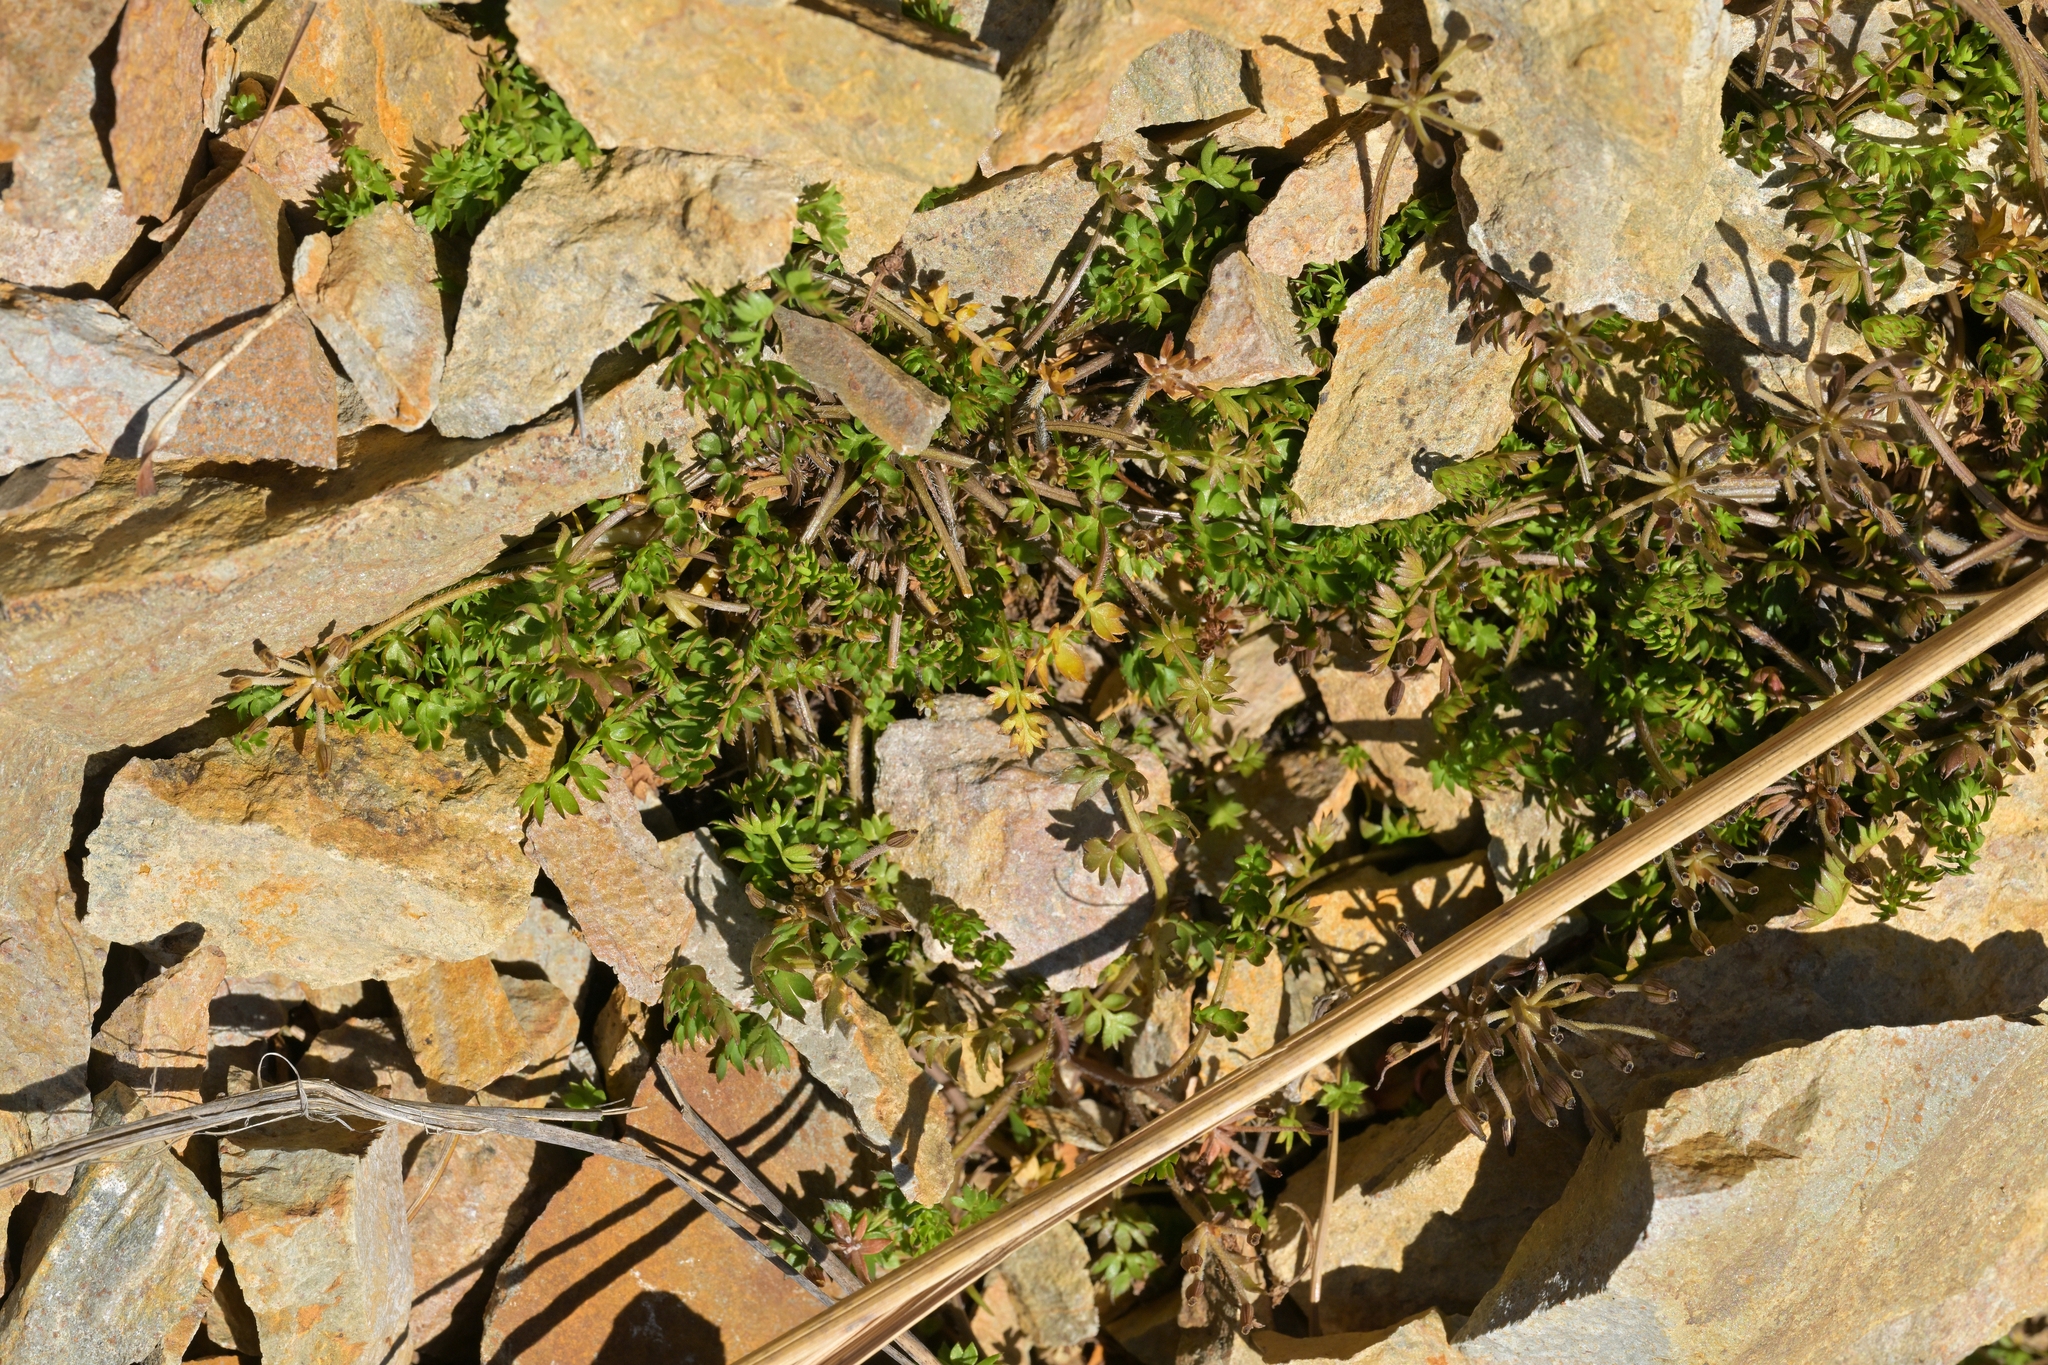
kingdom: Plantae
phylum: Tracheophyta
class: Magnoliopsida
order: Apiales
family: Apiaceae
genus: Gingidia
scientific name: Gingidia decipiens
